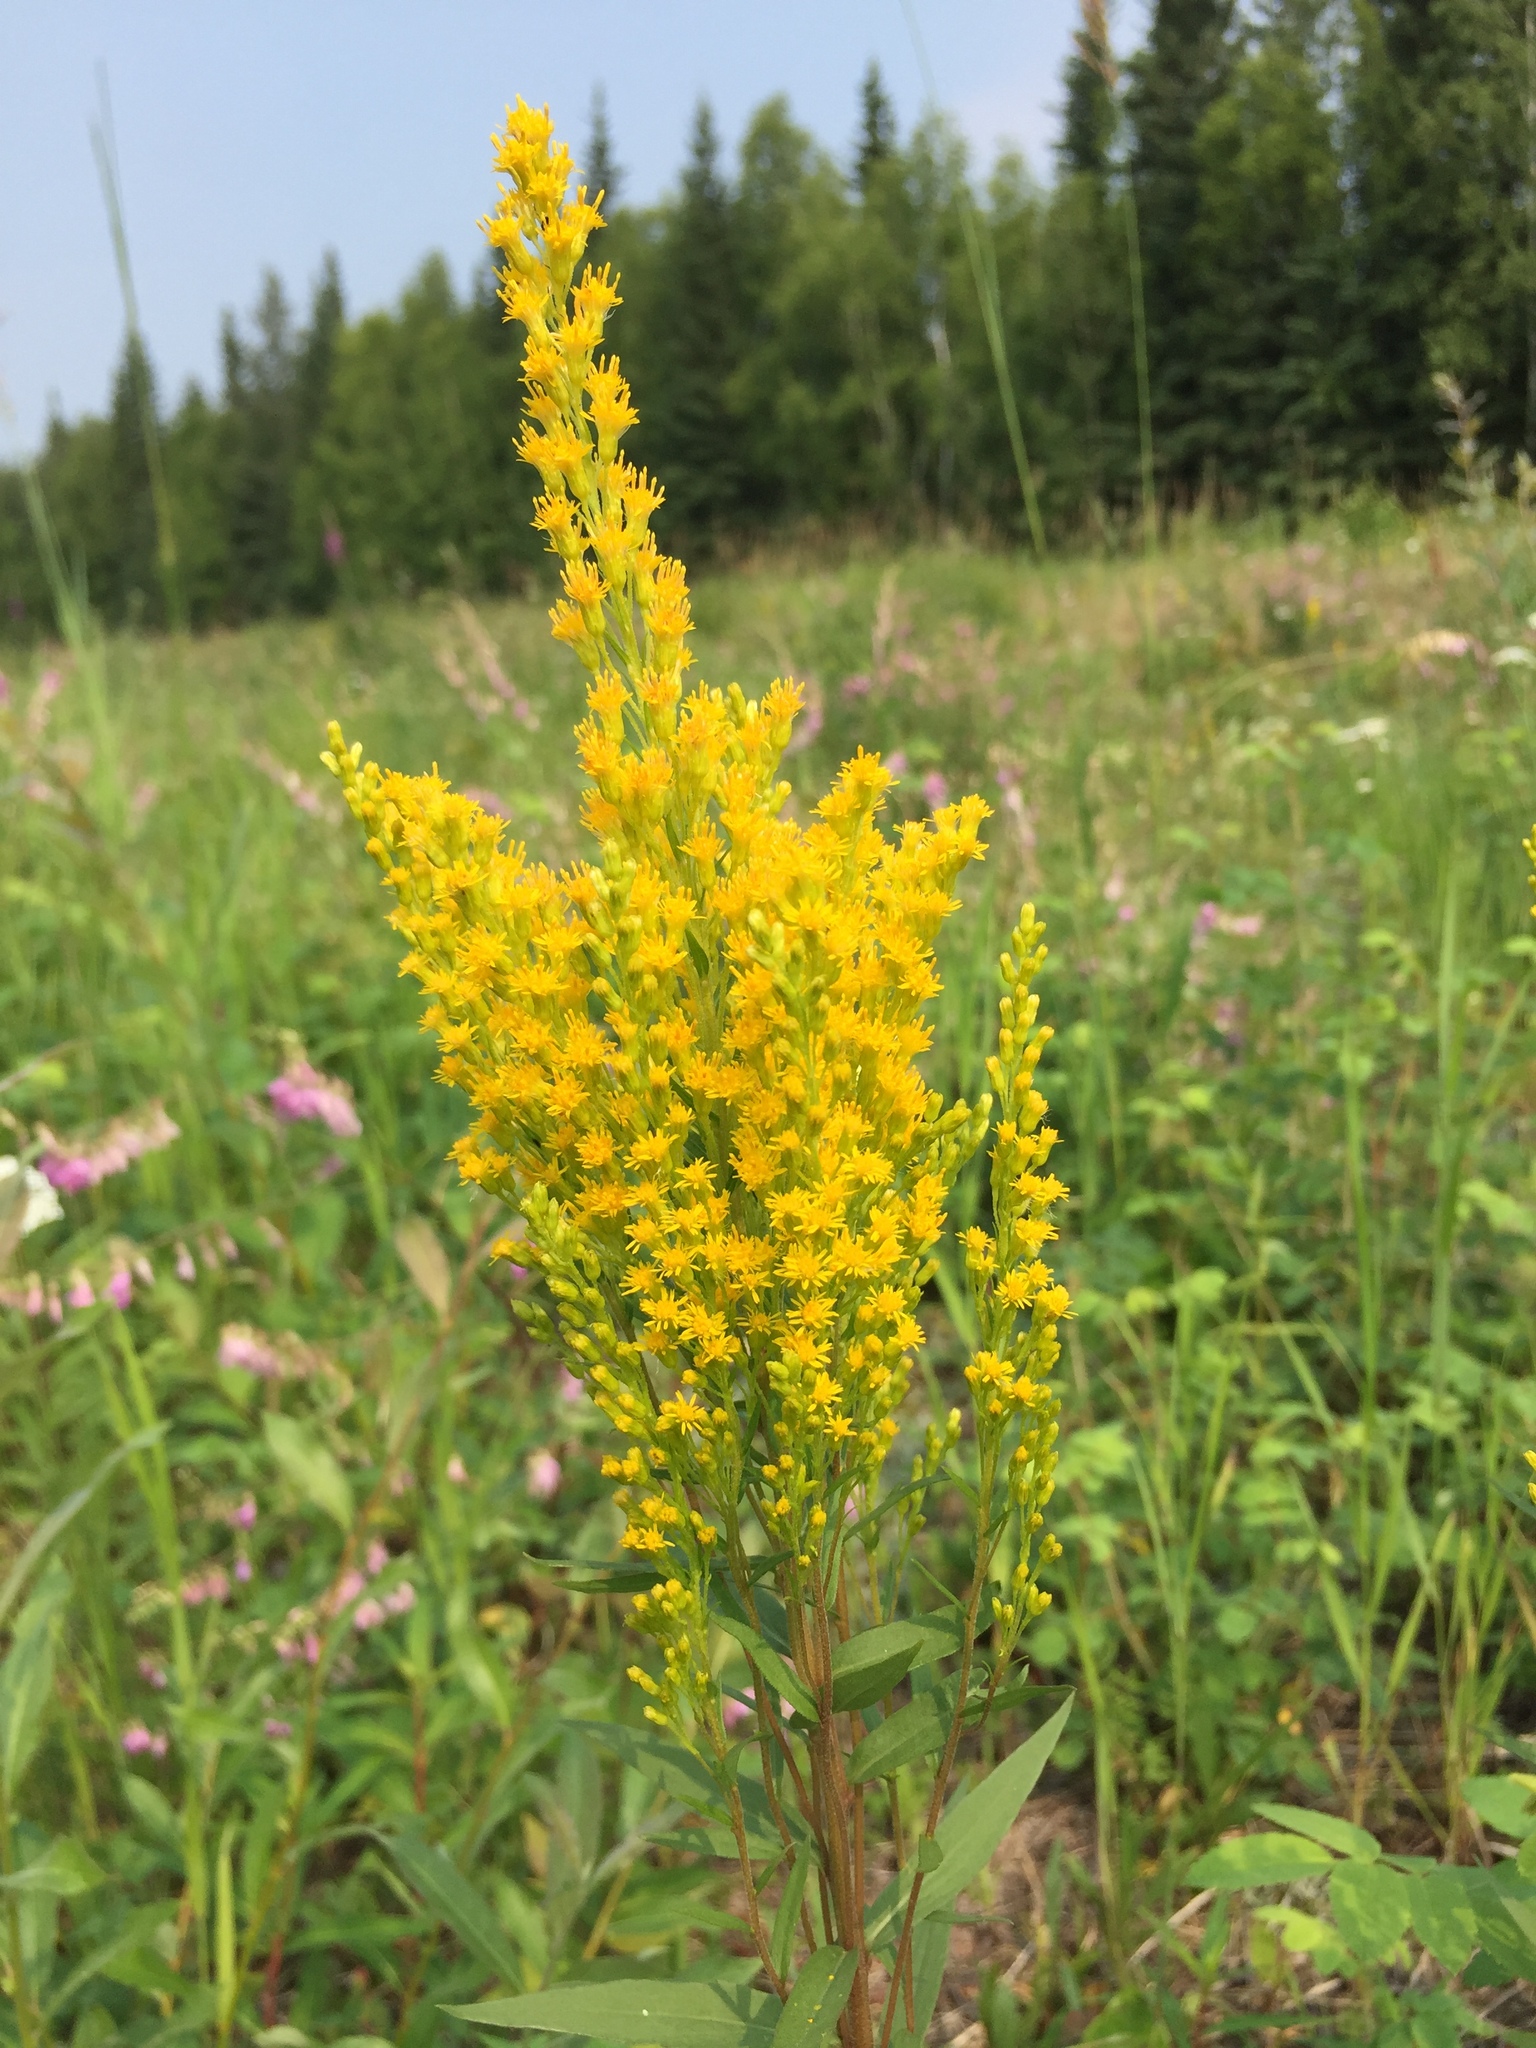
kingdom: Plantae
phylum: Tracheophyta
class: Magnoliopsida
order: Asterales
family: Asteraceae
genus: Solidago
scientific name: Solidago lepida
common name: Western canada goldenrod
